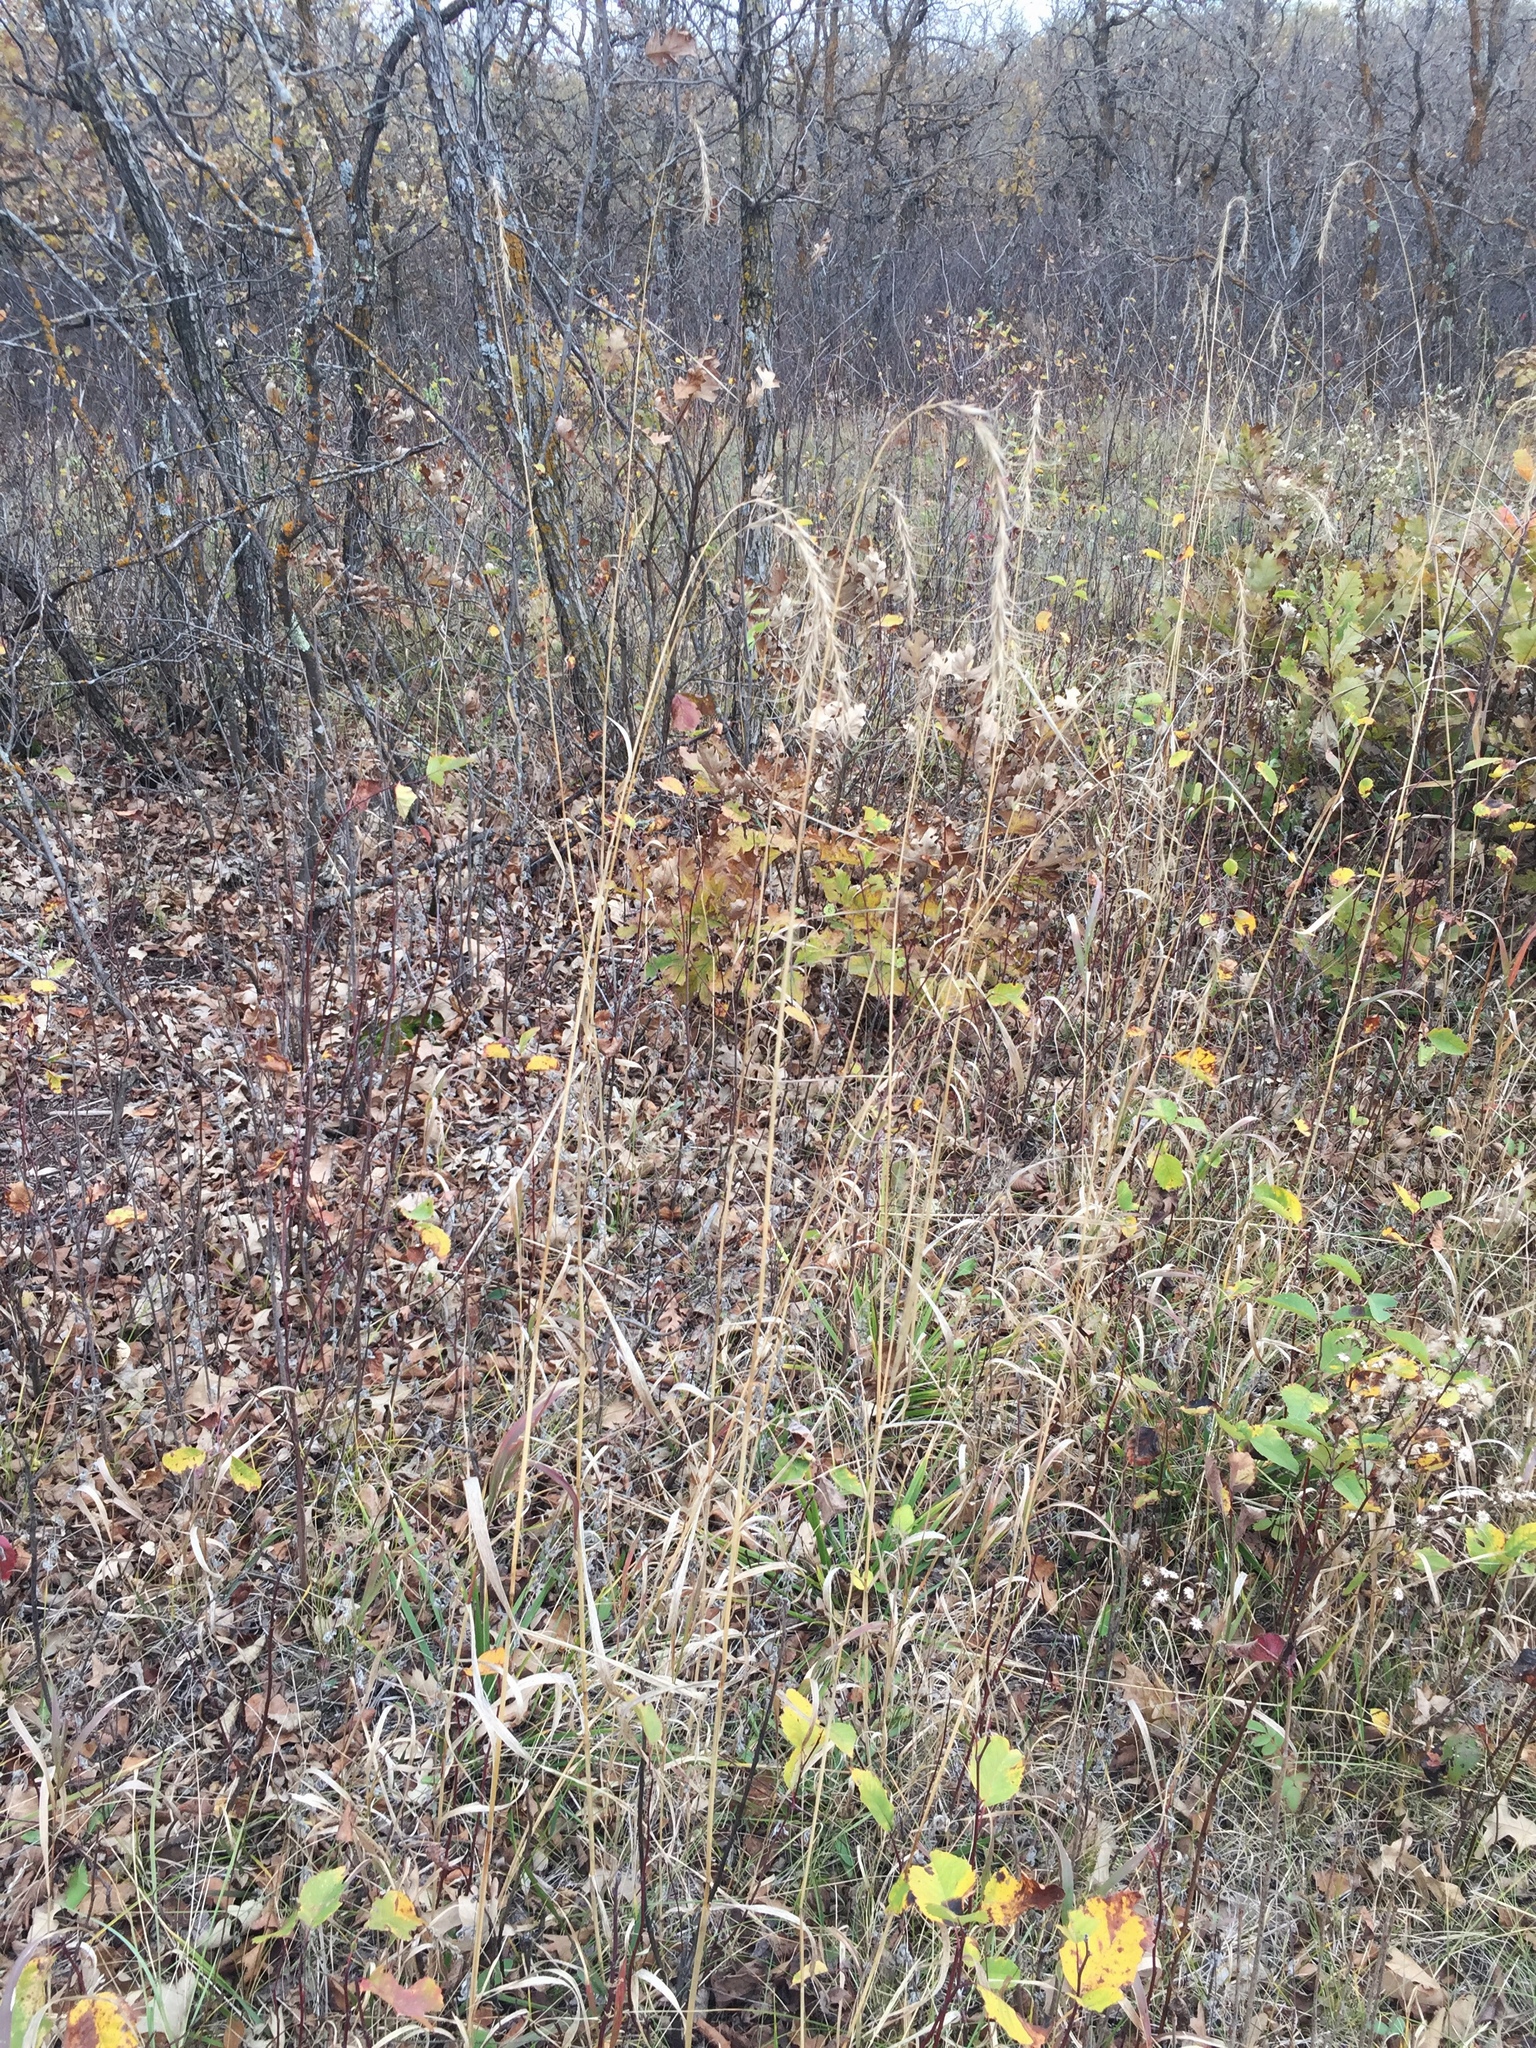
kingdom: Plantae
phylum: Tracheophyta
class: Liliopsida
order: Poales
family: Poaceae
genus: Elymus
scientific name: Elymus canadensis
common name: Canada wild rye
